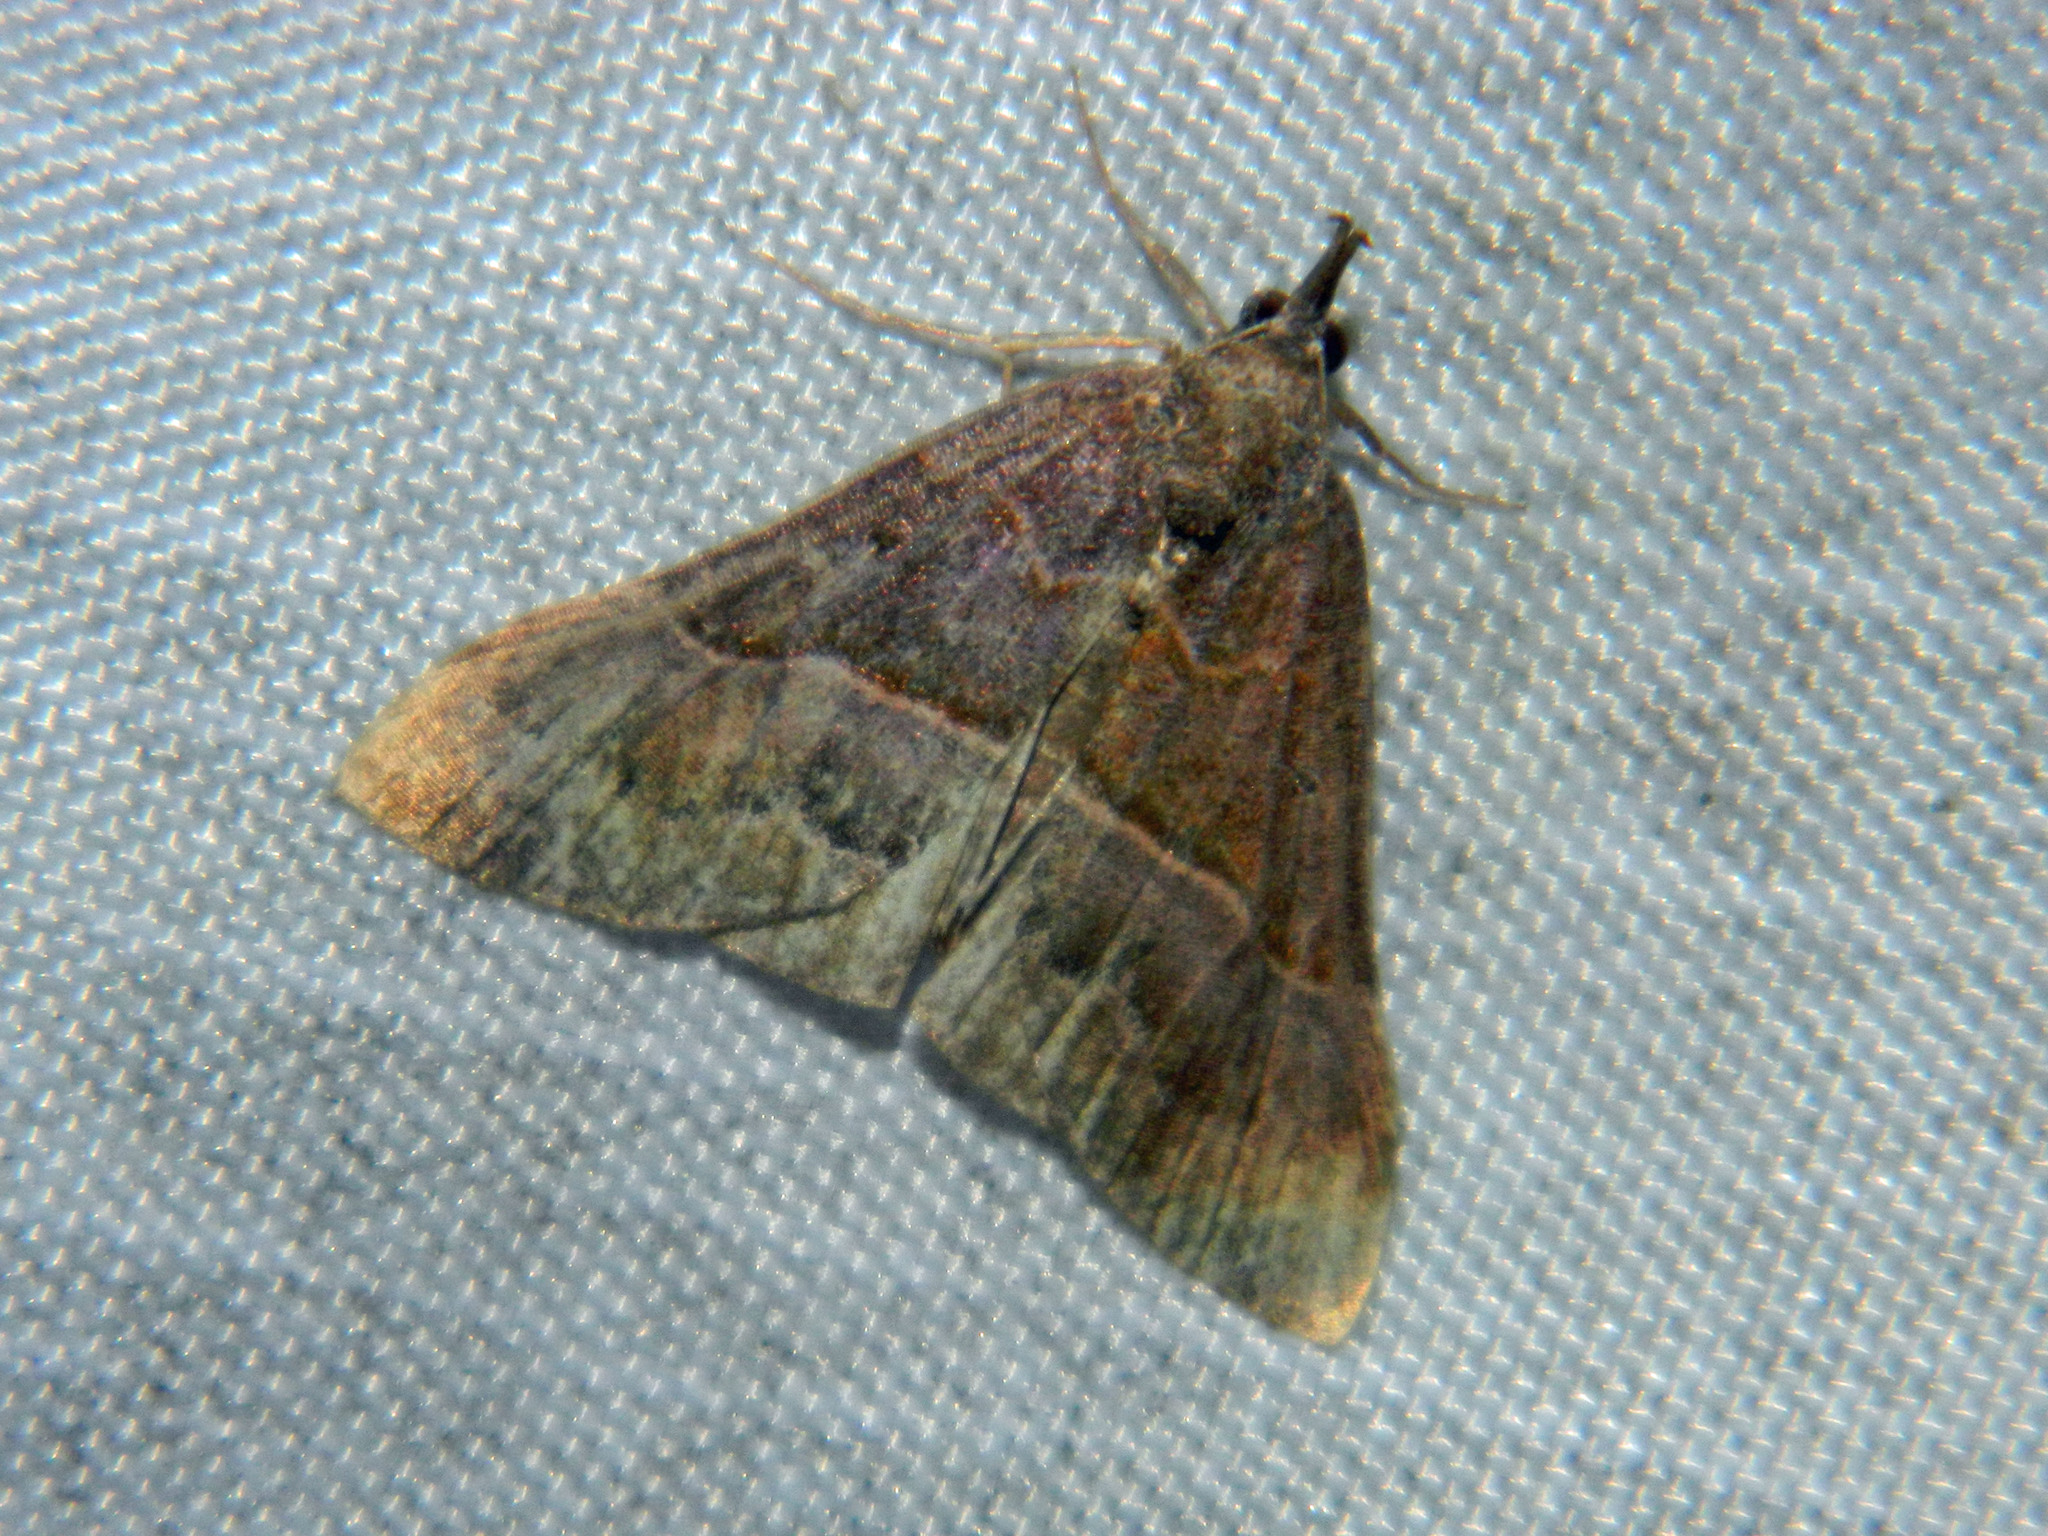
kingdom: Animalia
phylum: Arthropoda
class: Insecta
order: Lepidoptera
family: Erebidae
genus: Hypena
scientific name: Hypena eductalis
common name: Red-footed snout
